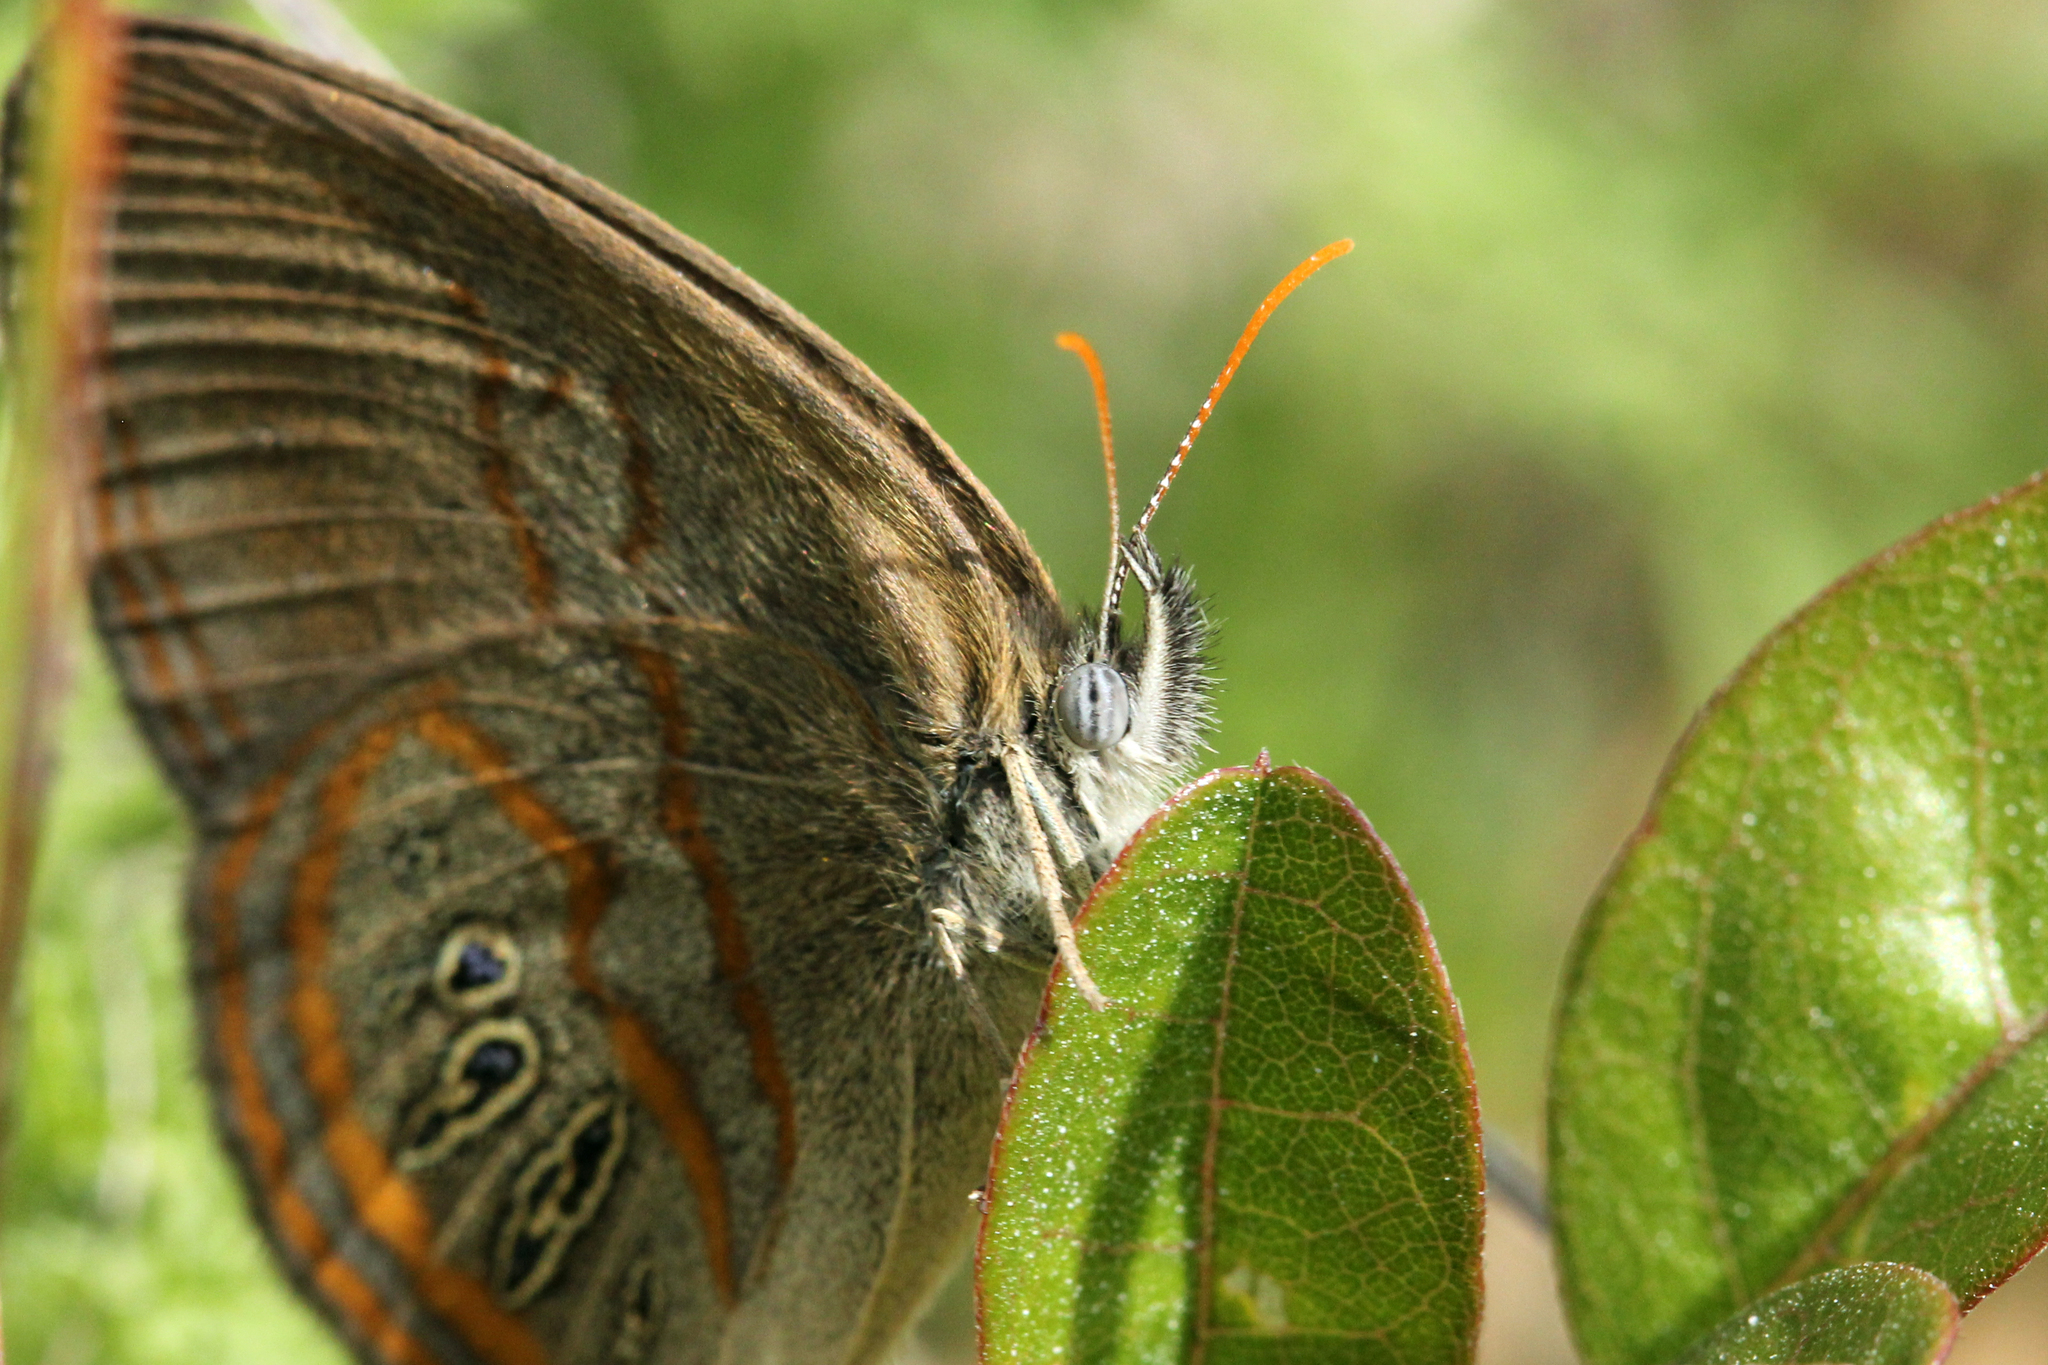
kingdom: Animalia
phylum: Arthropoda
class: Insecta
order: Lepidoptera
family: Nymphalidae
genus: Euptychia
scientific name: Euptychia phocion
